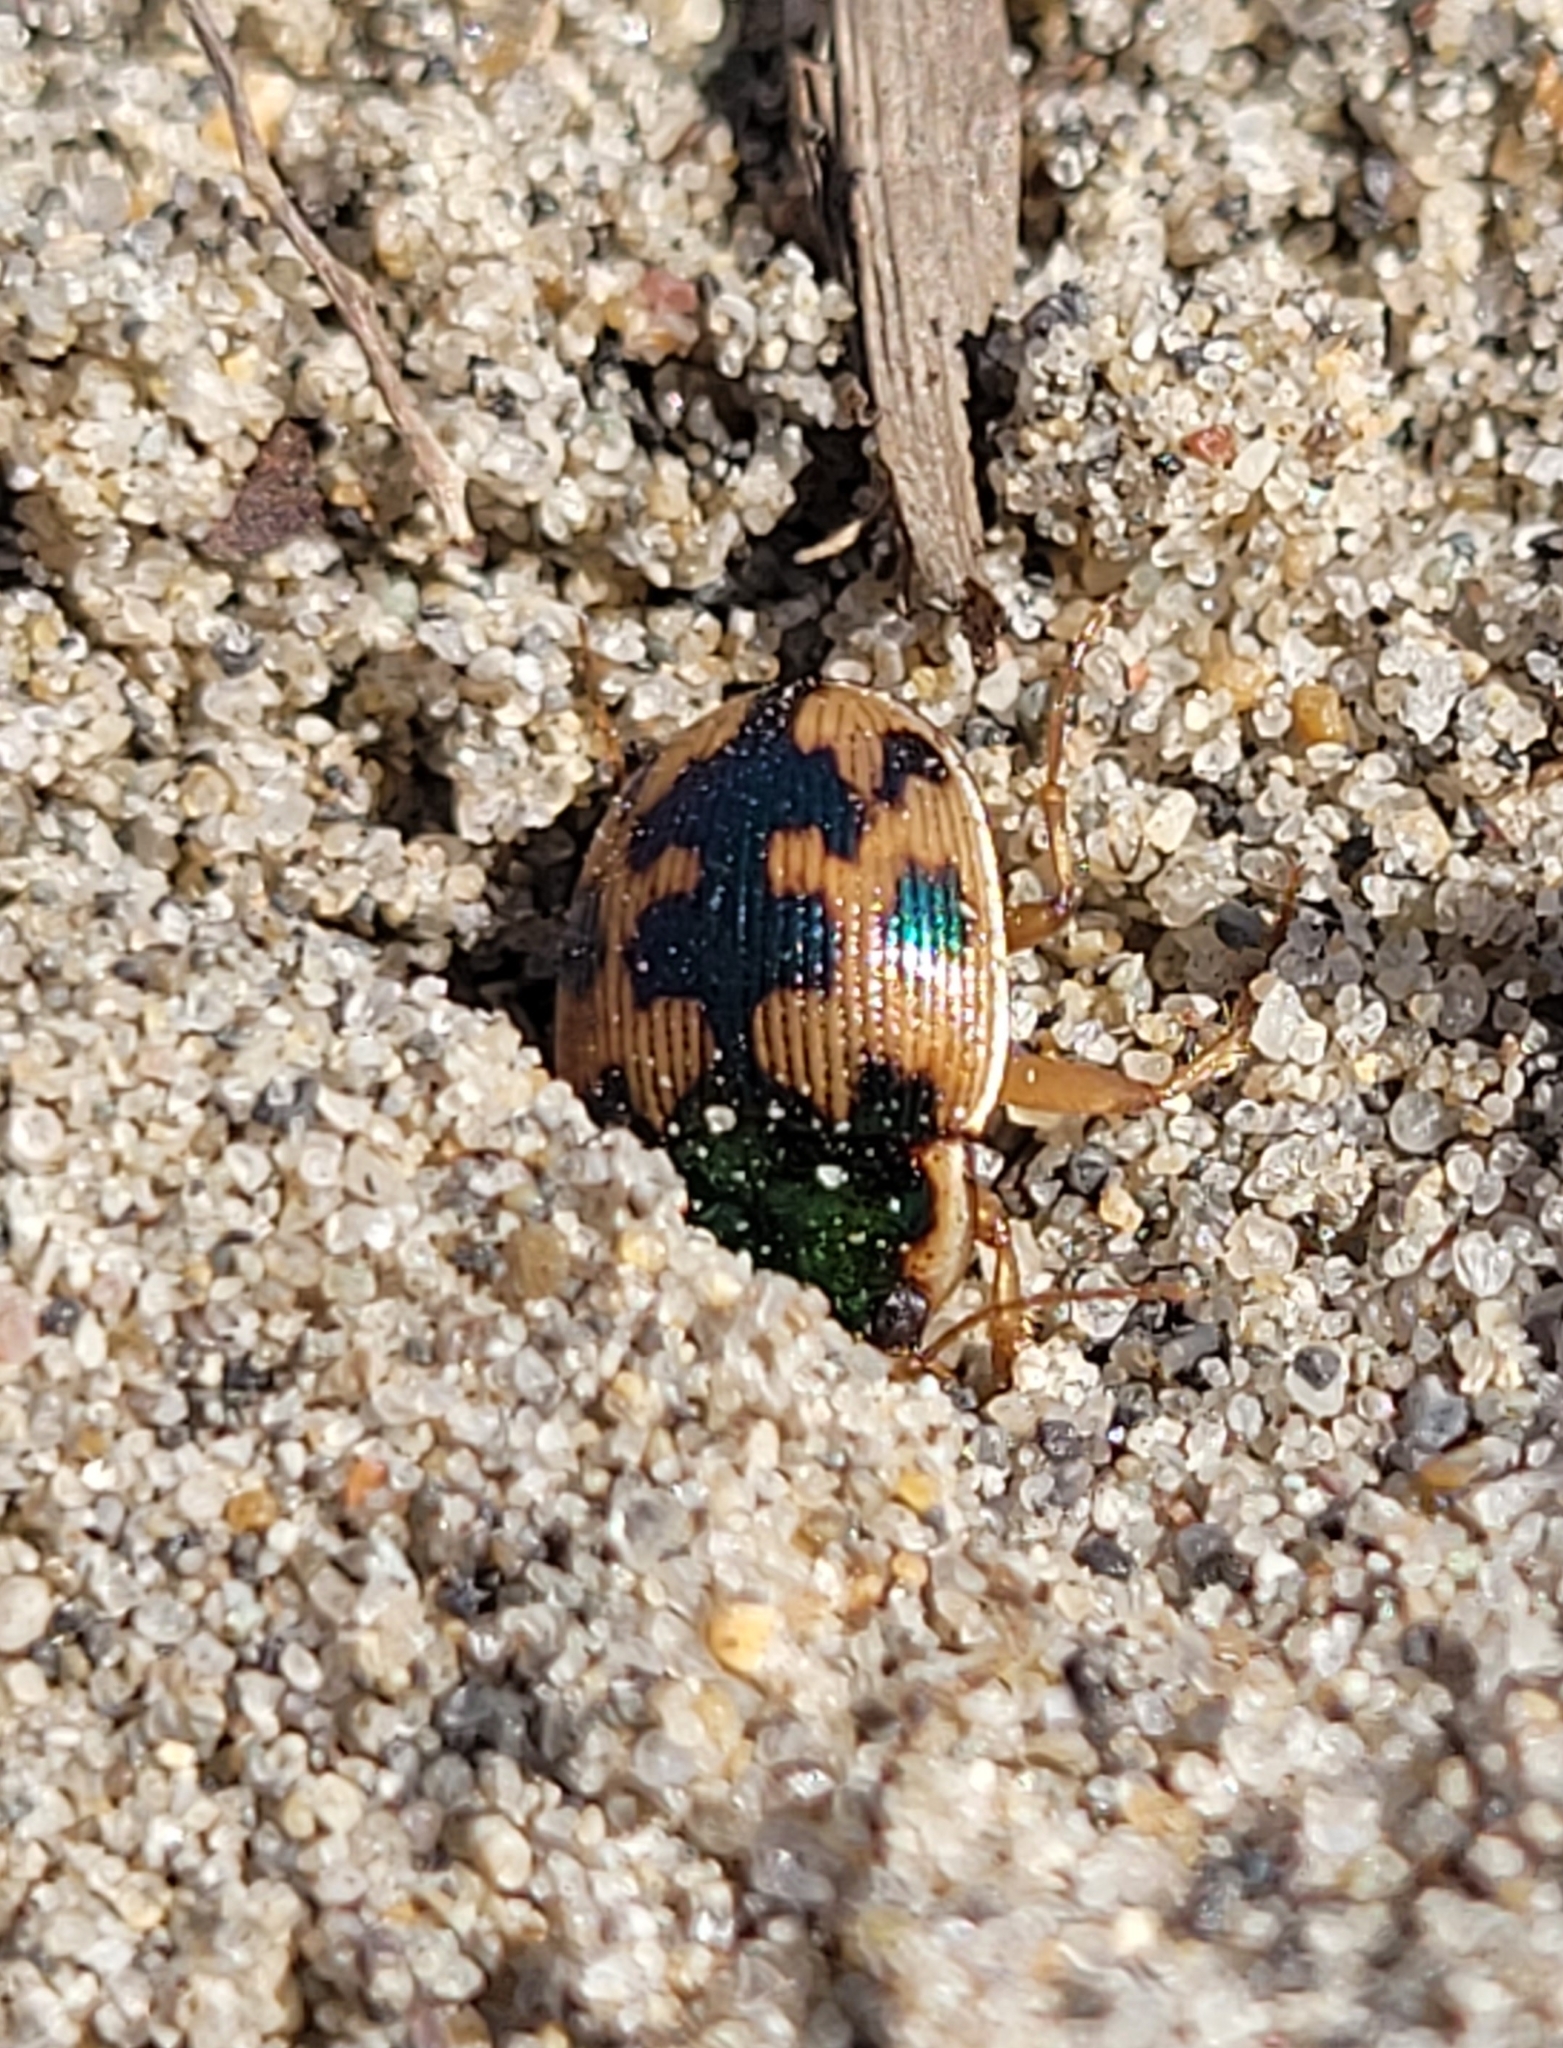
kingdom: Animalia
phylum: Arthropoda
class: Insecta
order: Coleoptera
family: Carabidae
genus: Omophron
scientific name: Omophron americanum
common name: American round sand beetle
